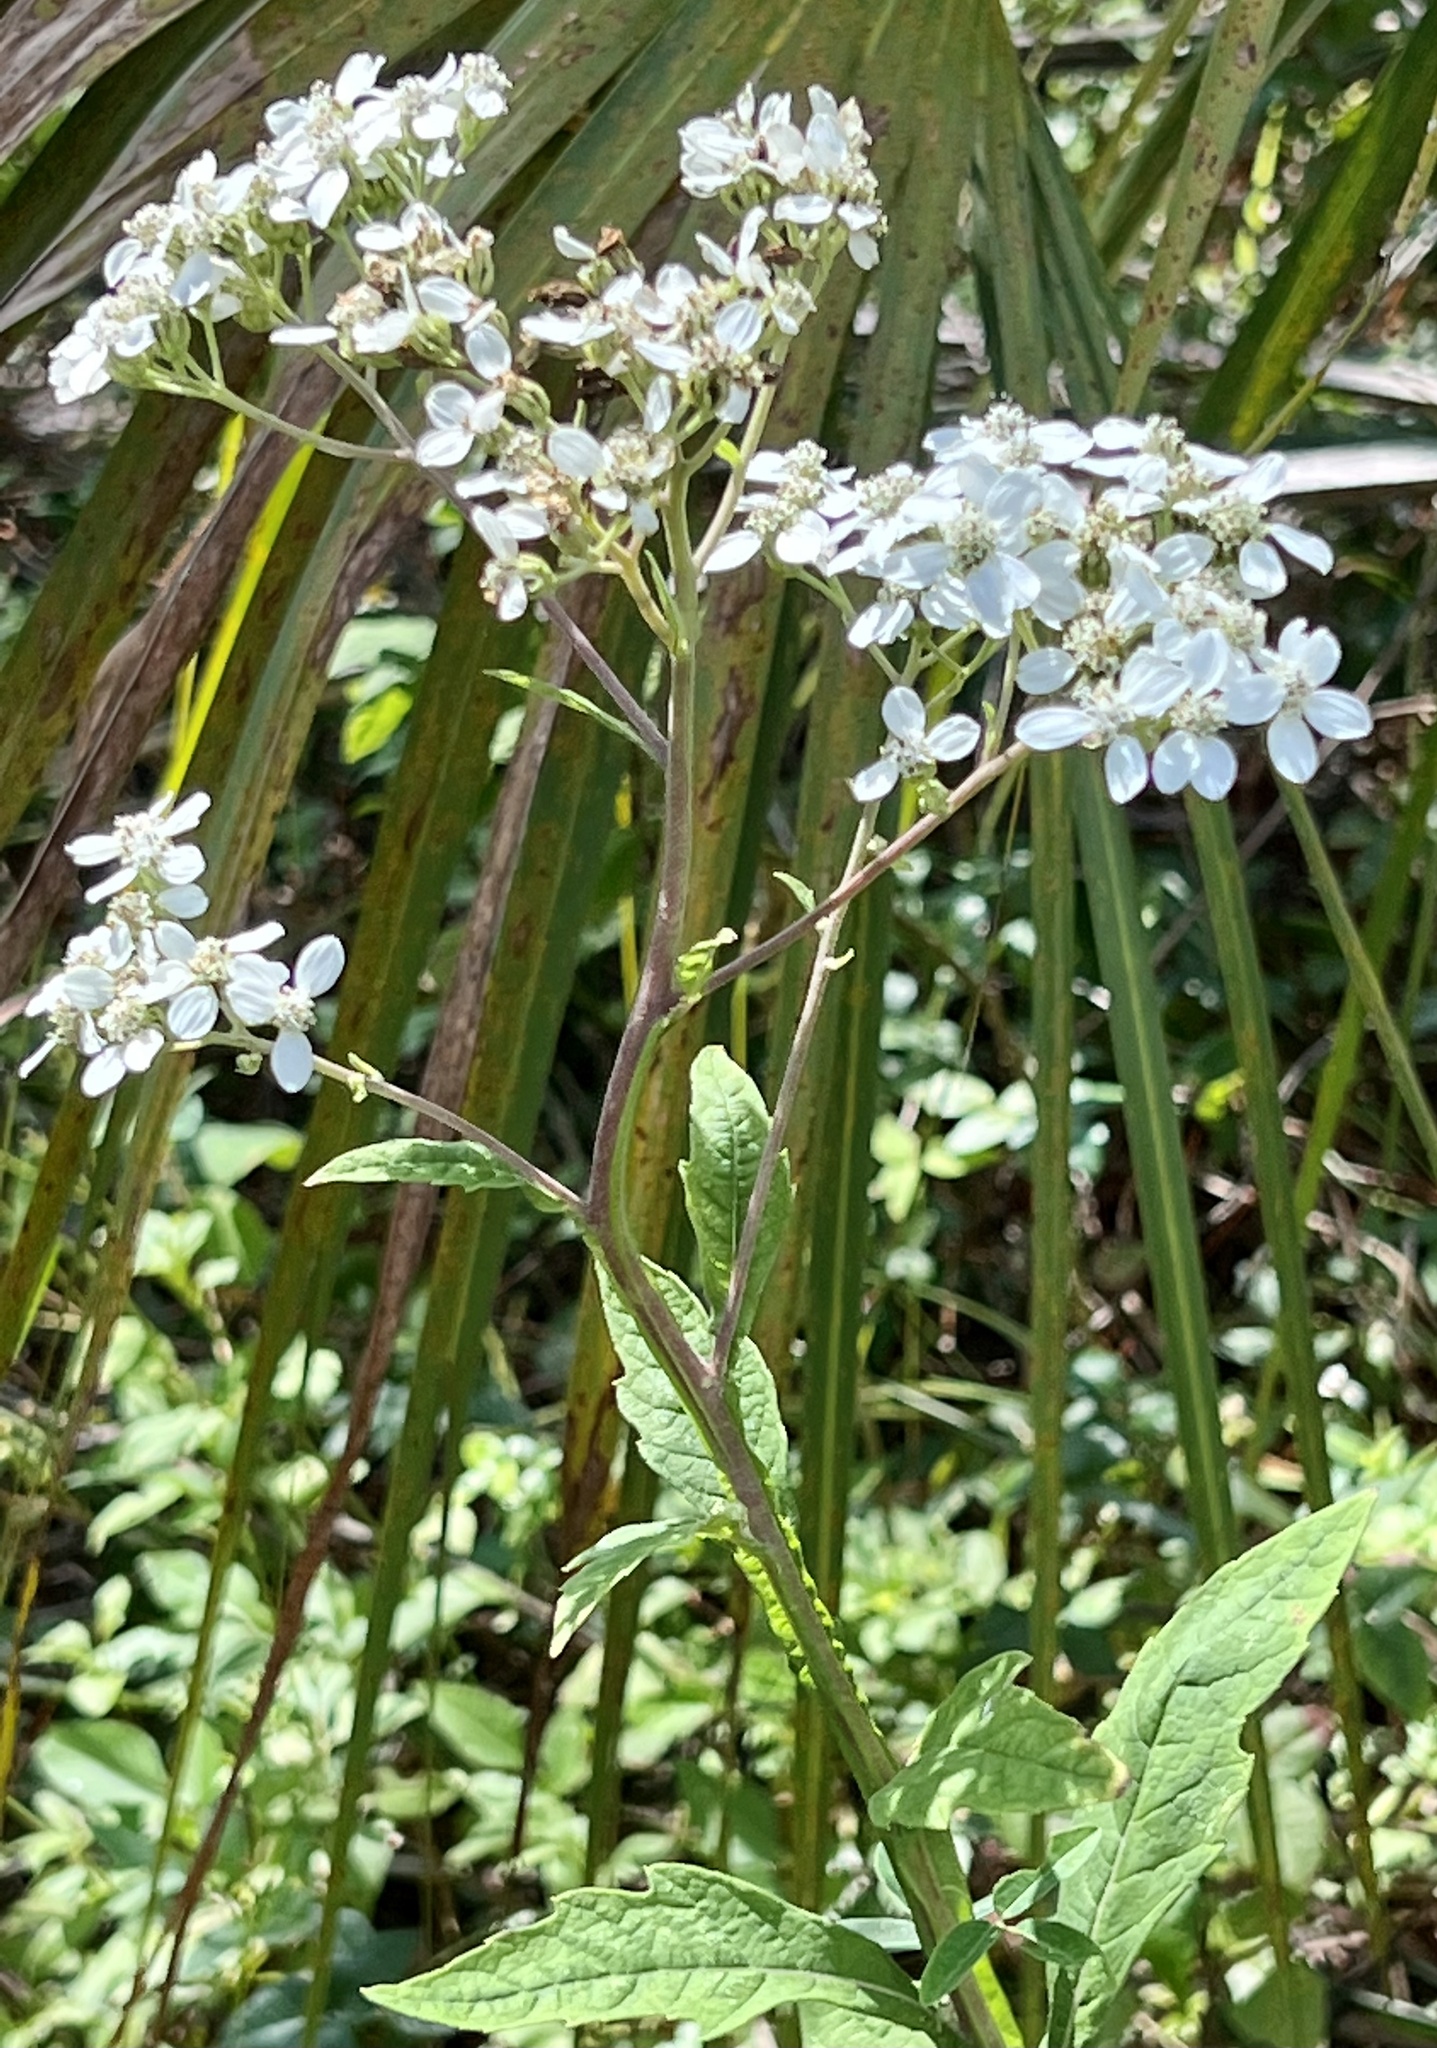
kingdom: Plantae
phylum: Tracheophyta
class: Magnoliopsida
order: Asterales
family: Asteraceae
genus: Verbesina
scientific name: Verbesina virginica
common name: Frostweed
